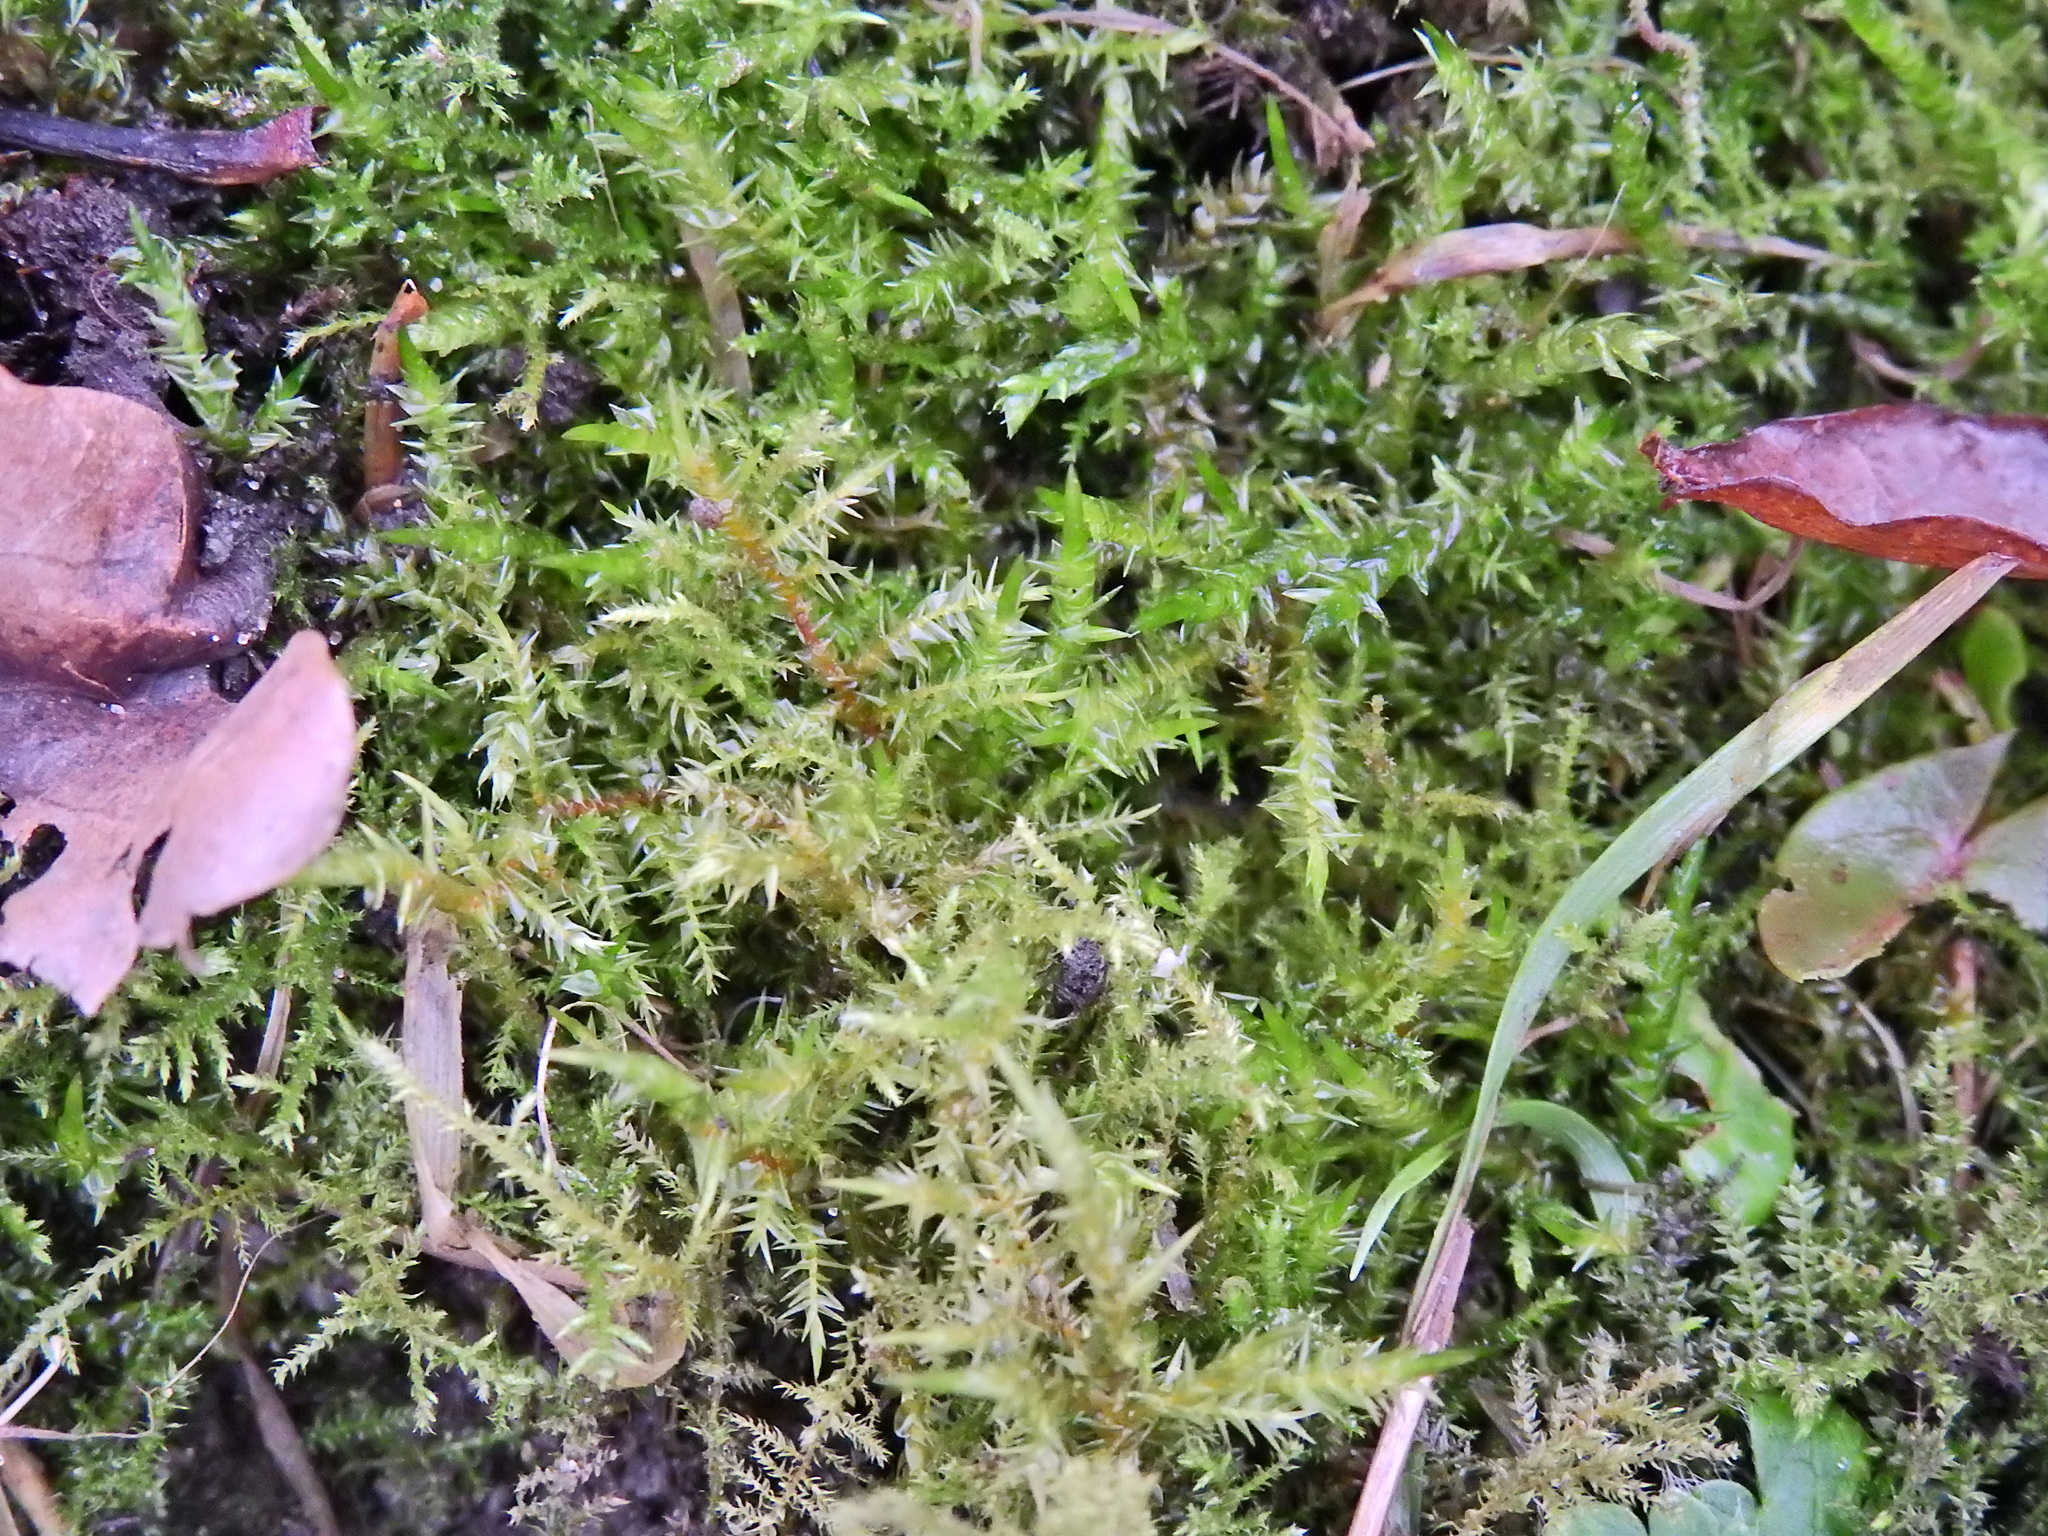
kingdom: Plantae
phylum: Bryophyta
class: Bryopsida
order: Hypnales
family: Pylaisiaceae
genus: Calliergonella
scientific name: Calliergonella cuspidata
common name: Common large wetland moss
